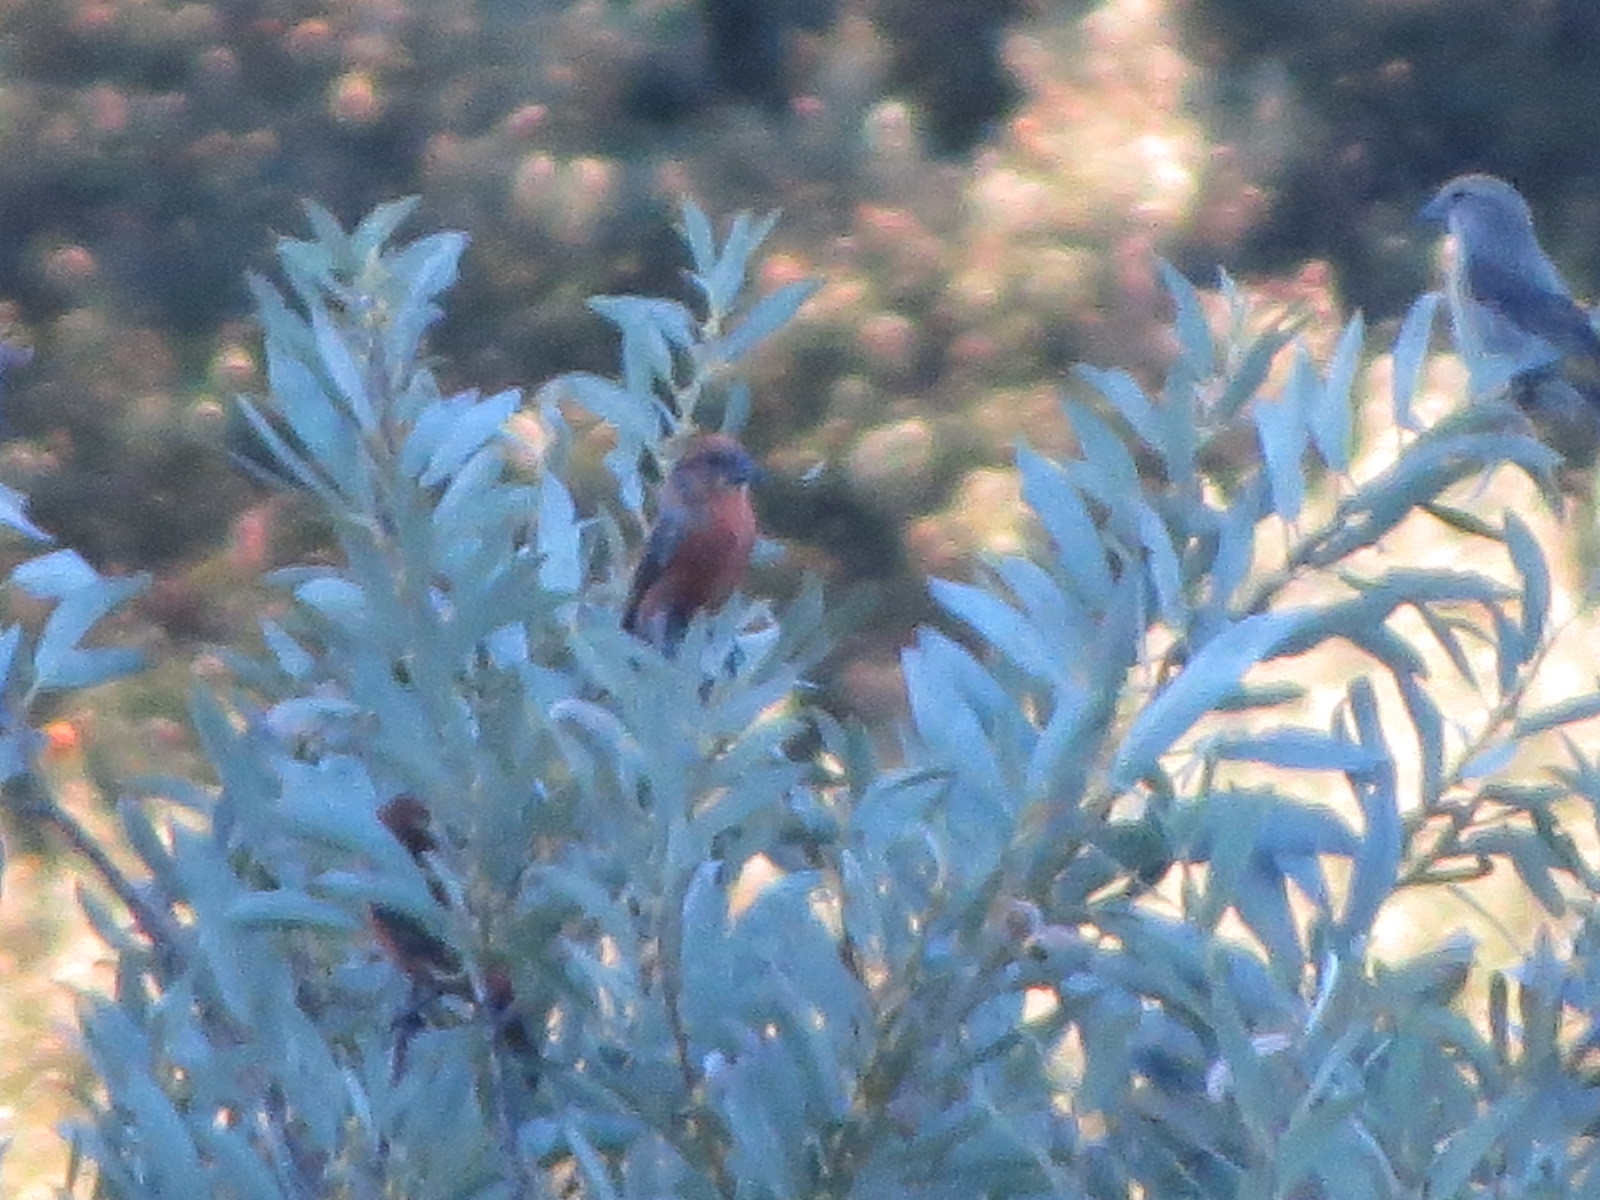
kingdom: Animalia
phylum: Chordata
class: Aves
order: Passeriformes
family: Fringillidae
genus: Loxia
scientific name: Loxia curvirostra
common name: Red crossbill
